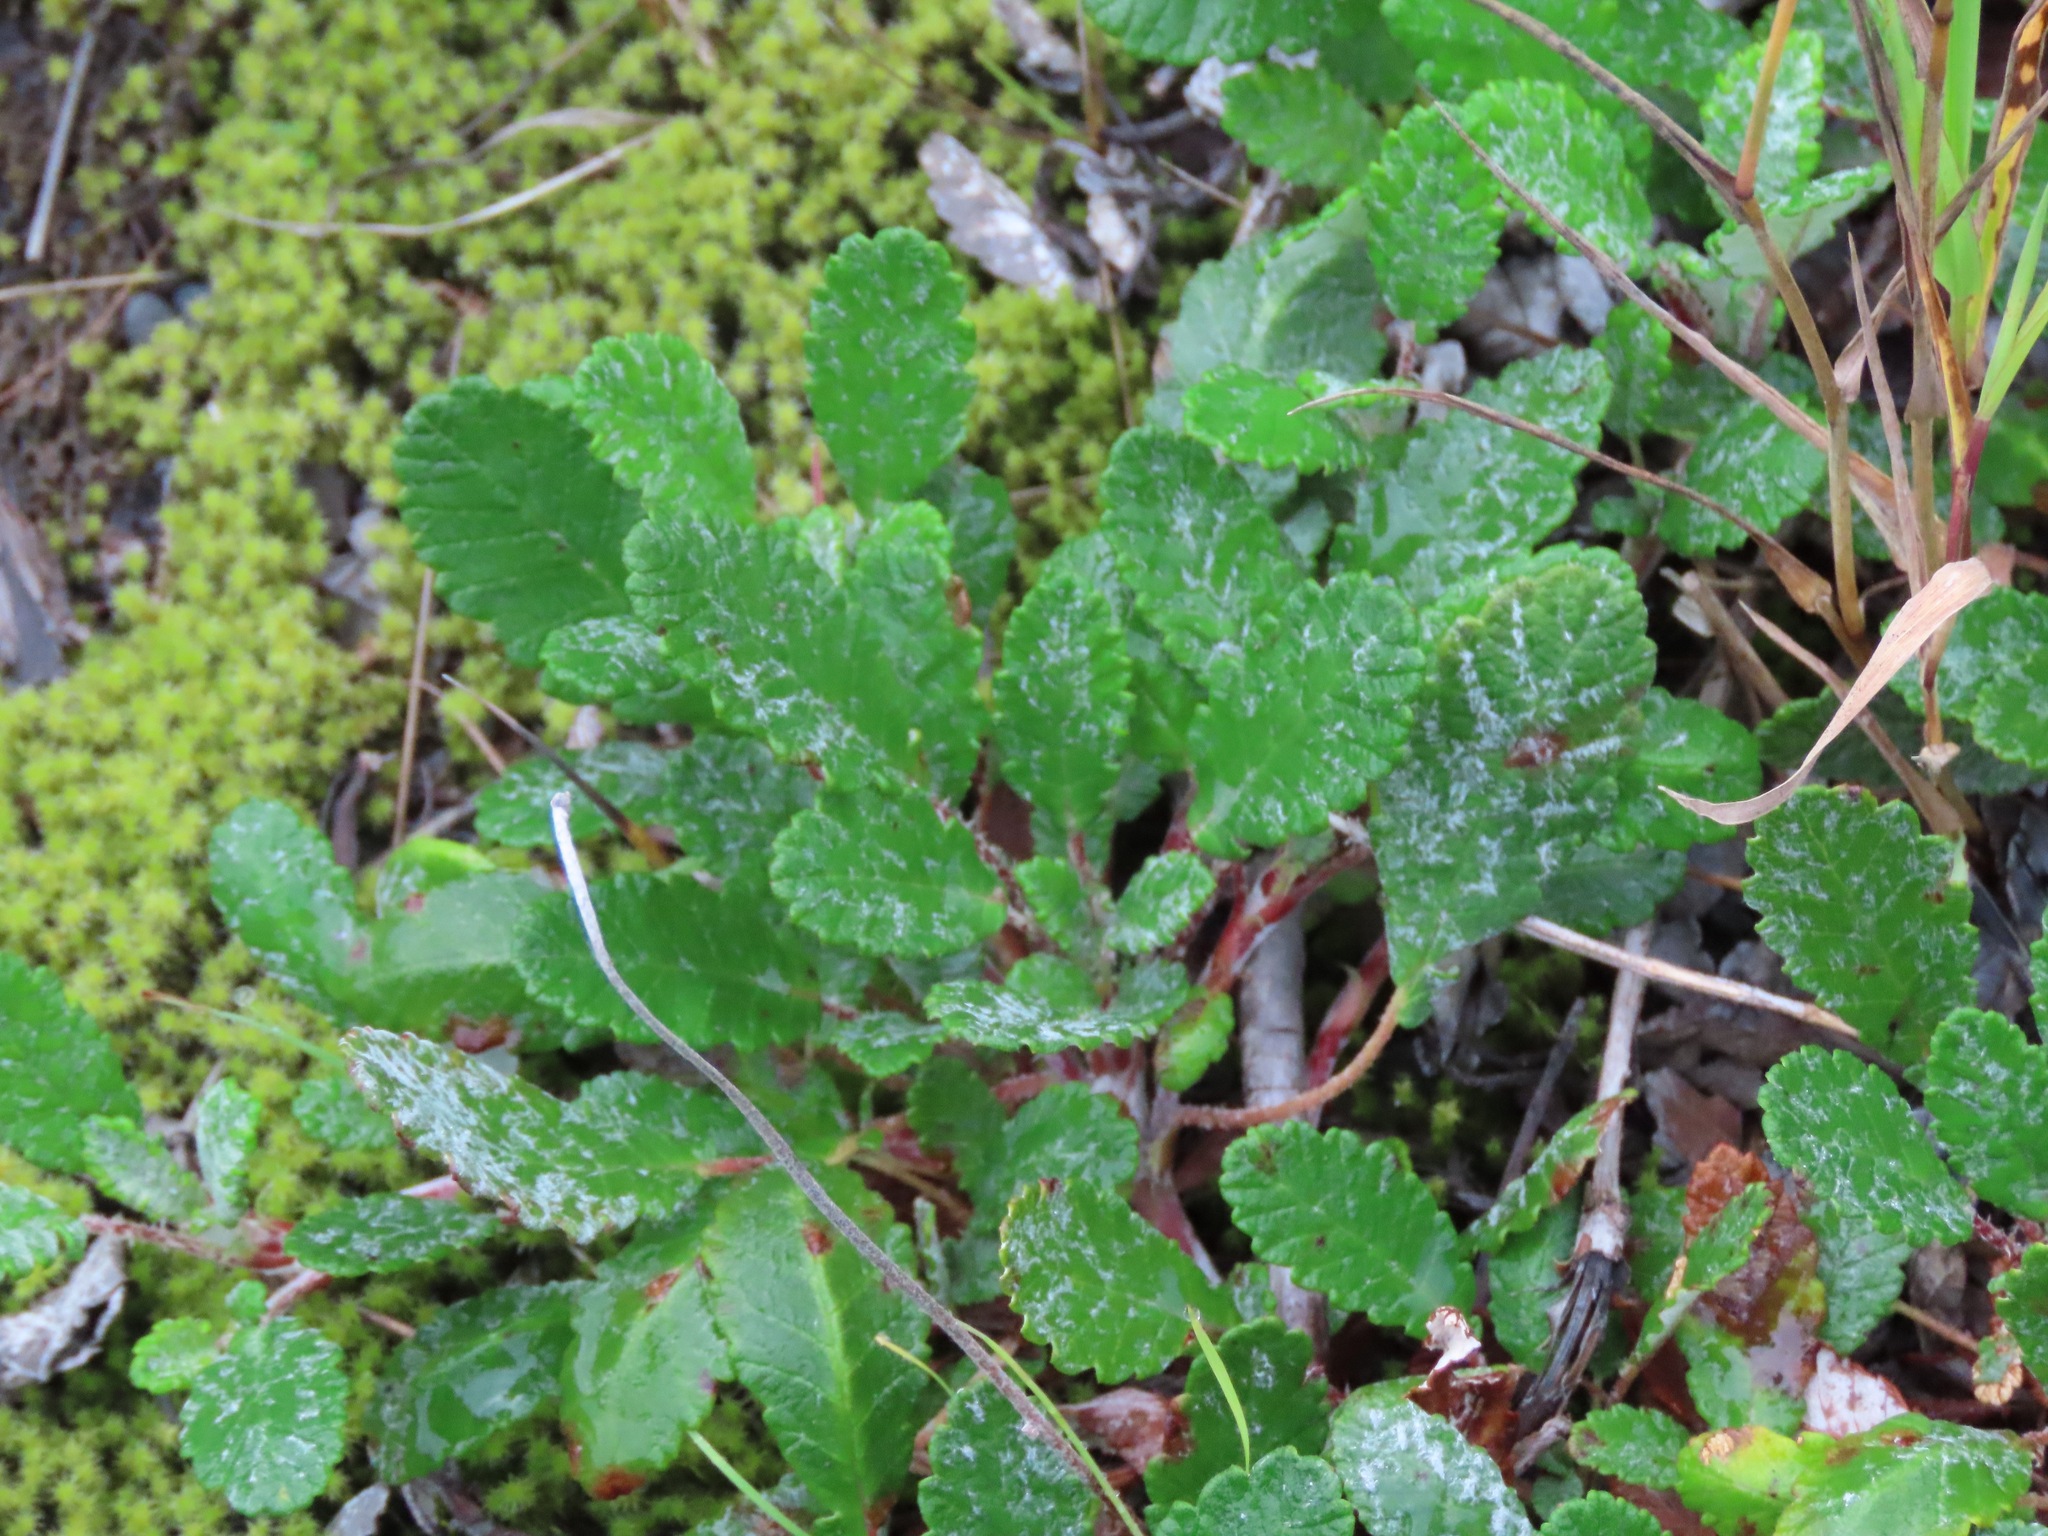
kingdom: Plantae
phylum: Tracheophyta
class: Magnoliopsida
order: Rosales
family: Rosaceae
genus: Dryas
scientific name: Dryas drummondii
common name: Drummond's dryad
